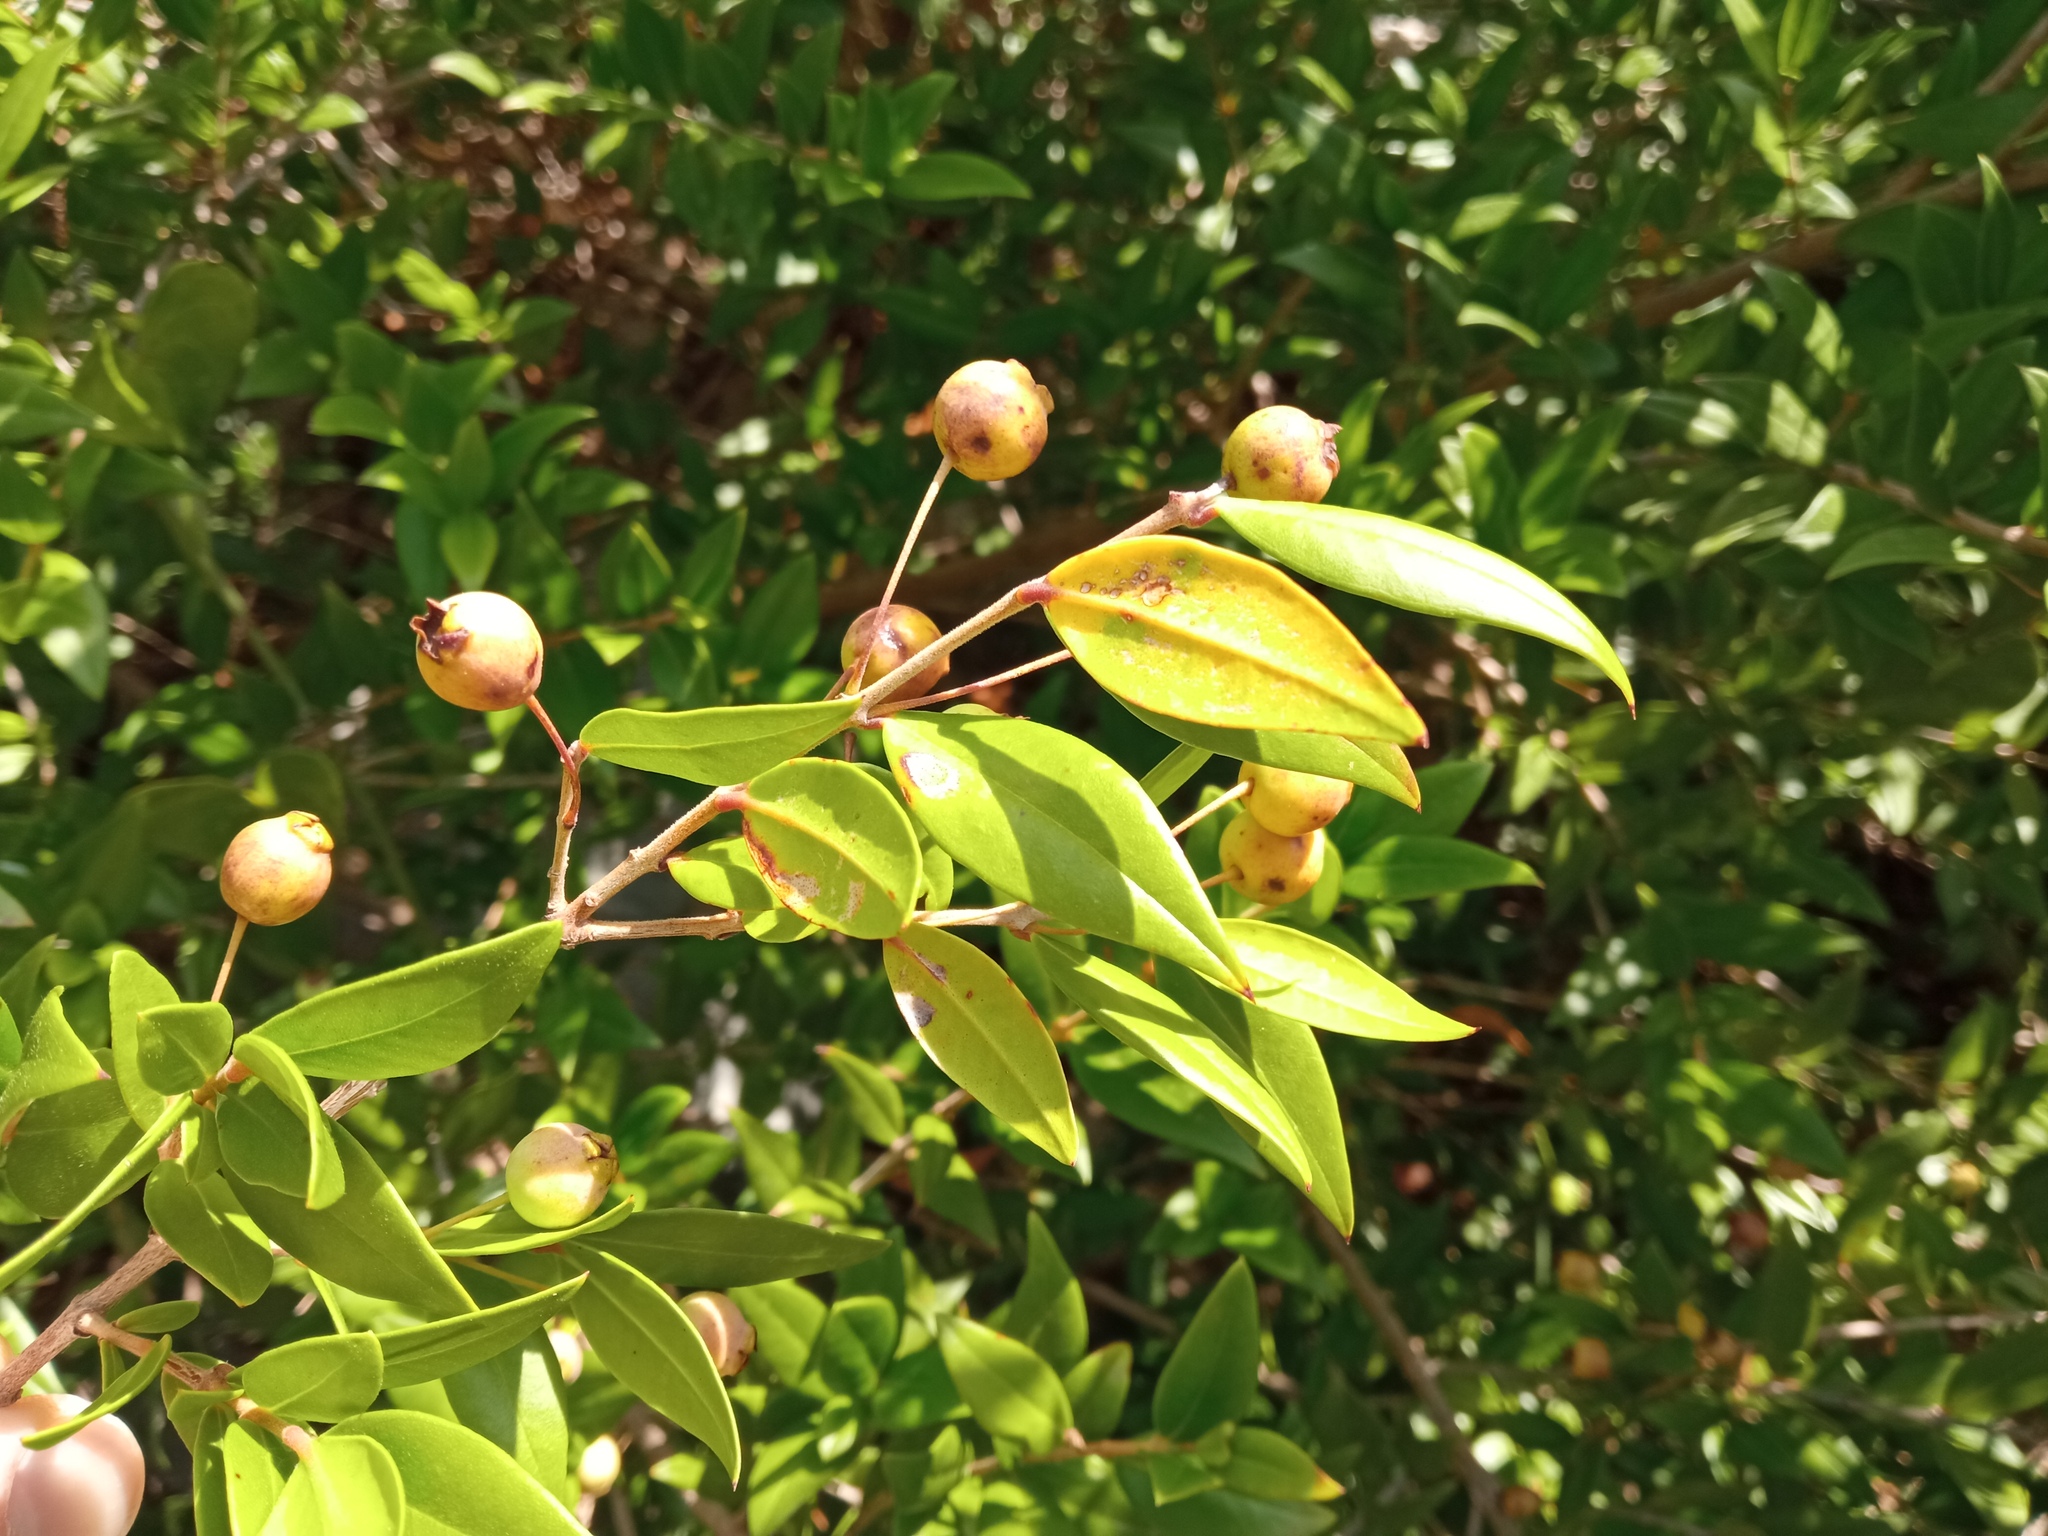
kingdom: Plantae
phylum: Tracheophyta
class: Magnoliopsida
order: Myrtales
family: Myrtaceae
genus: Myrtus
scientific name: Myrtus communis
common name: Myrtle
